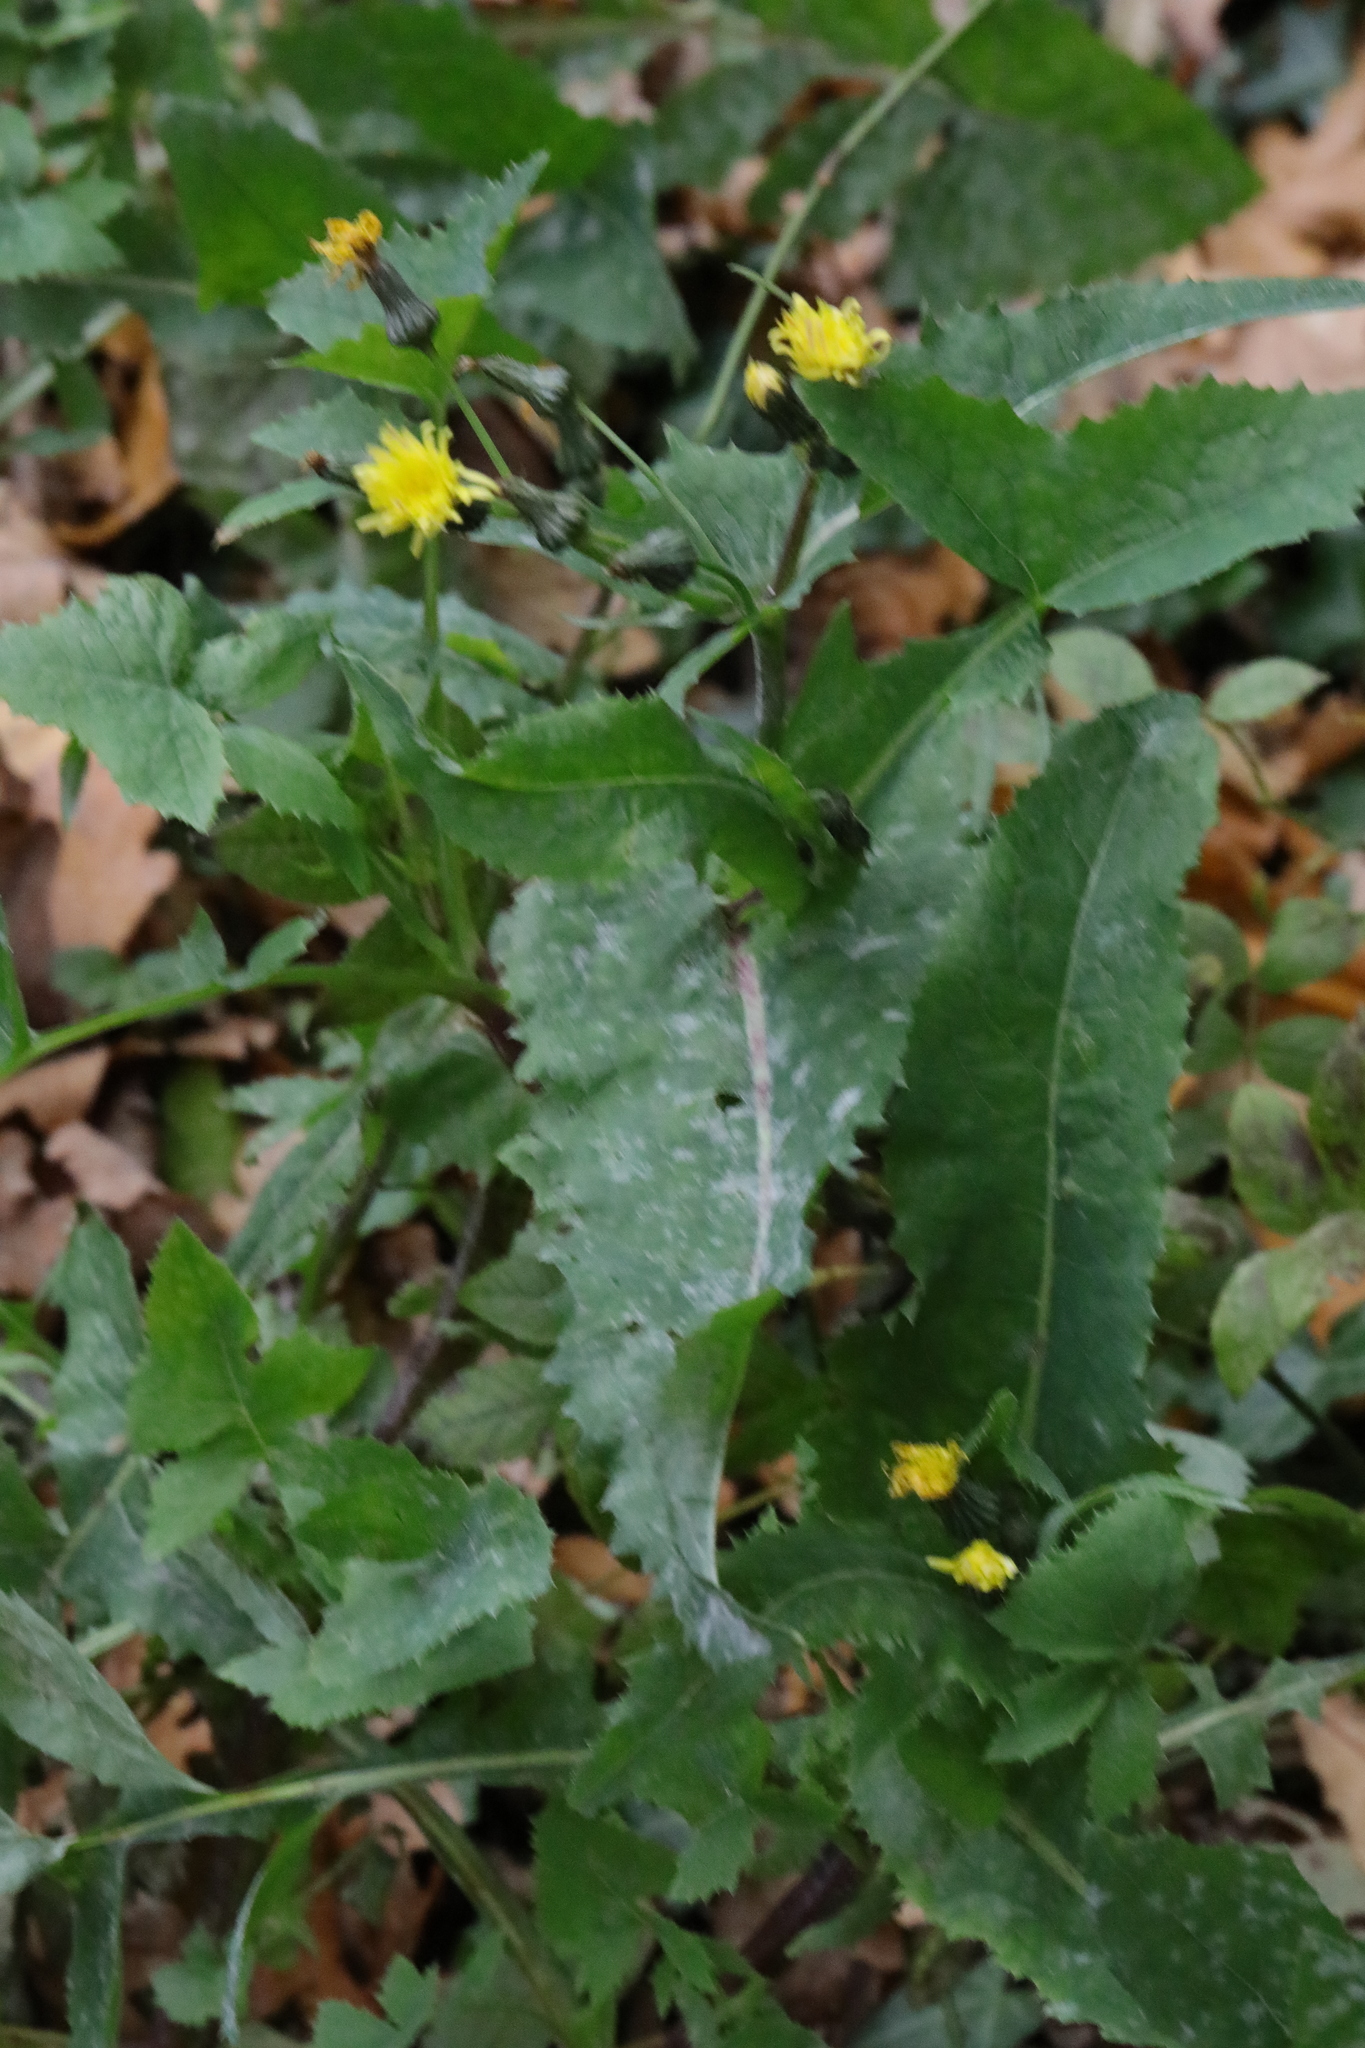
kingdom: Plantae
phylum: Tracheophyta
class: Magnoliopsida
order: Asterales
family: Asteraceae
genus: Sonchus
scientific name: Sonchus oleraceus
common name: Common sowthistle
